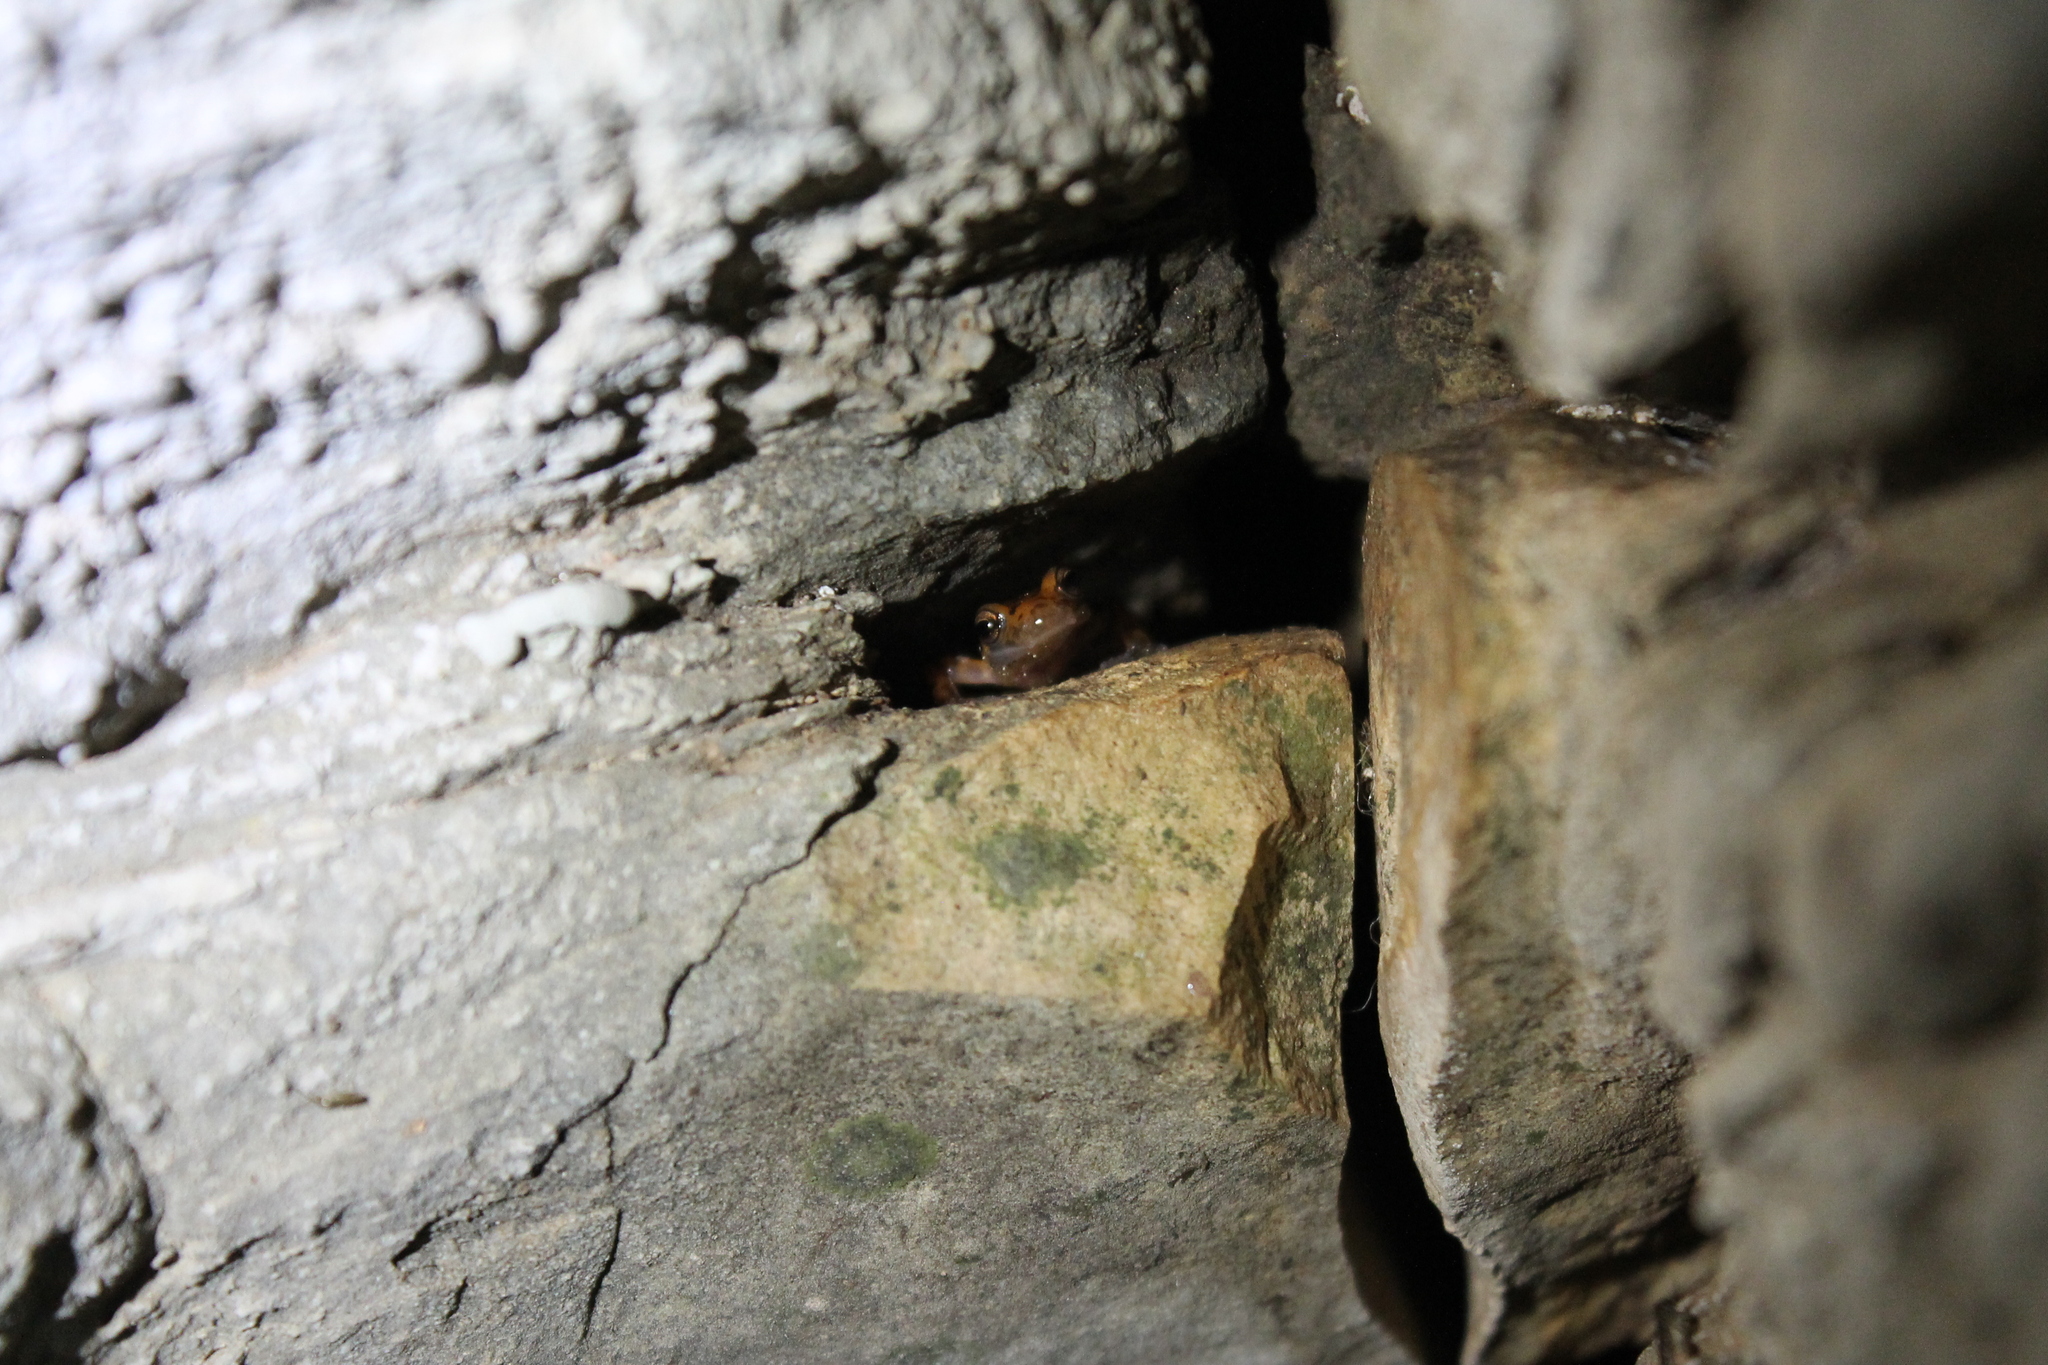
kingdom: Animalia
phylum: Chordata
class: Amphibia
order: Caudata
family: Plethodontidae
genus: Eurycea
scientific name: Eurycea lucifuga
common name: Cave salamander
